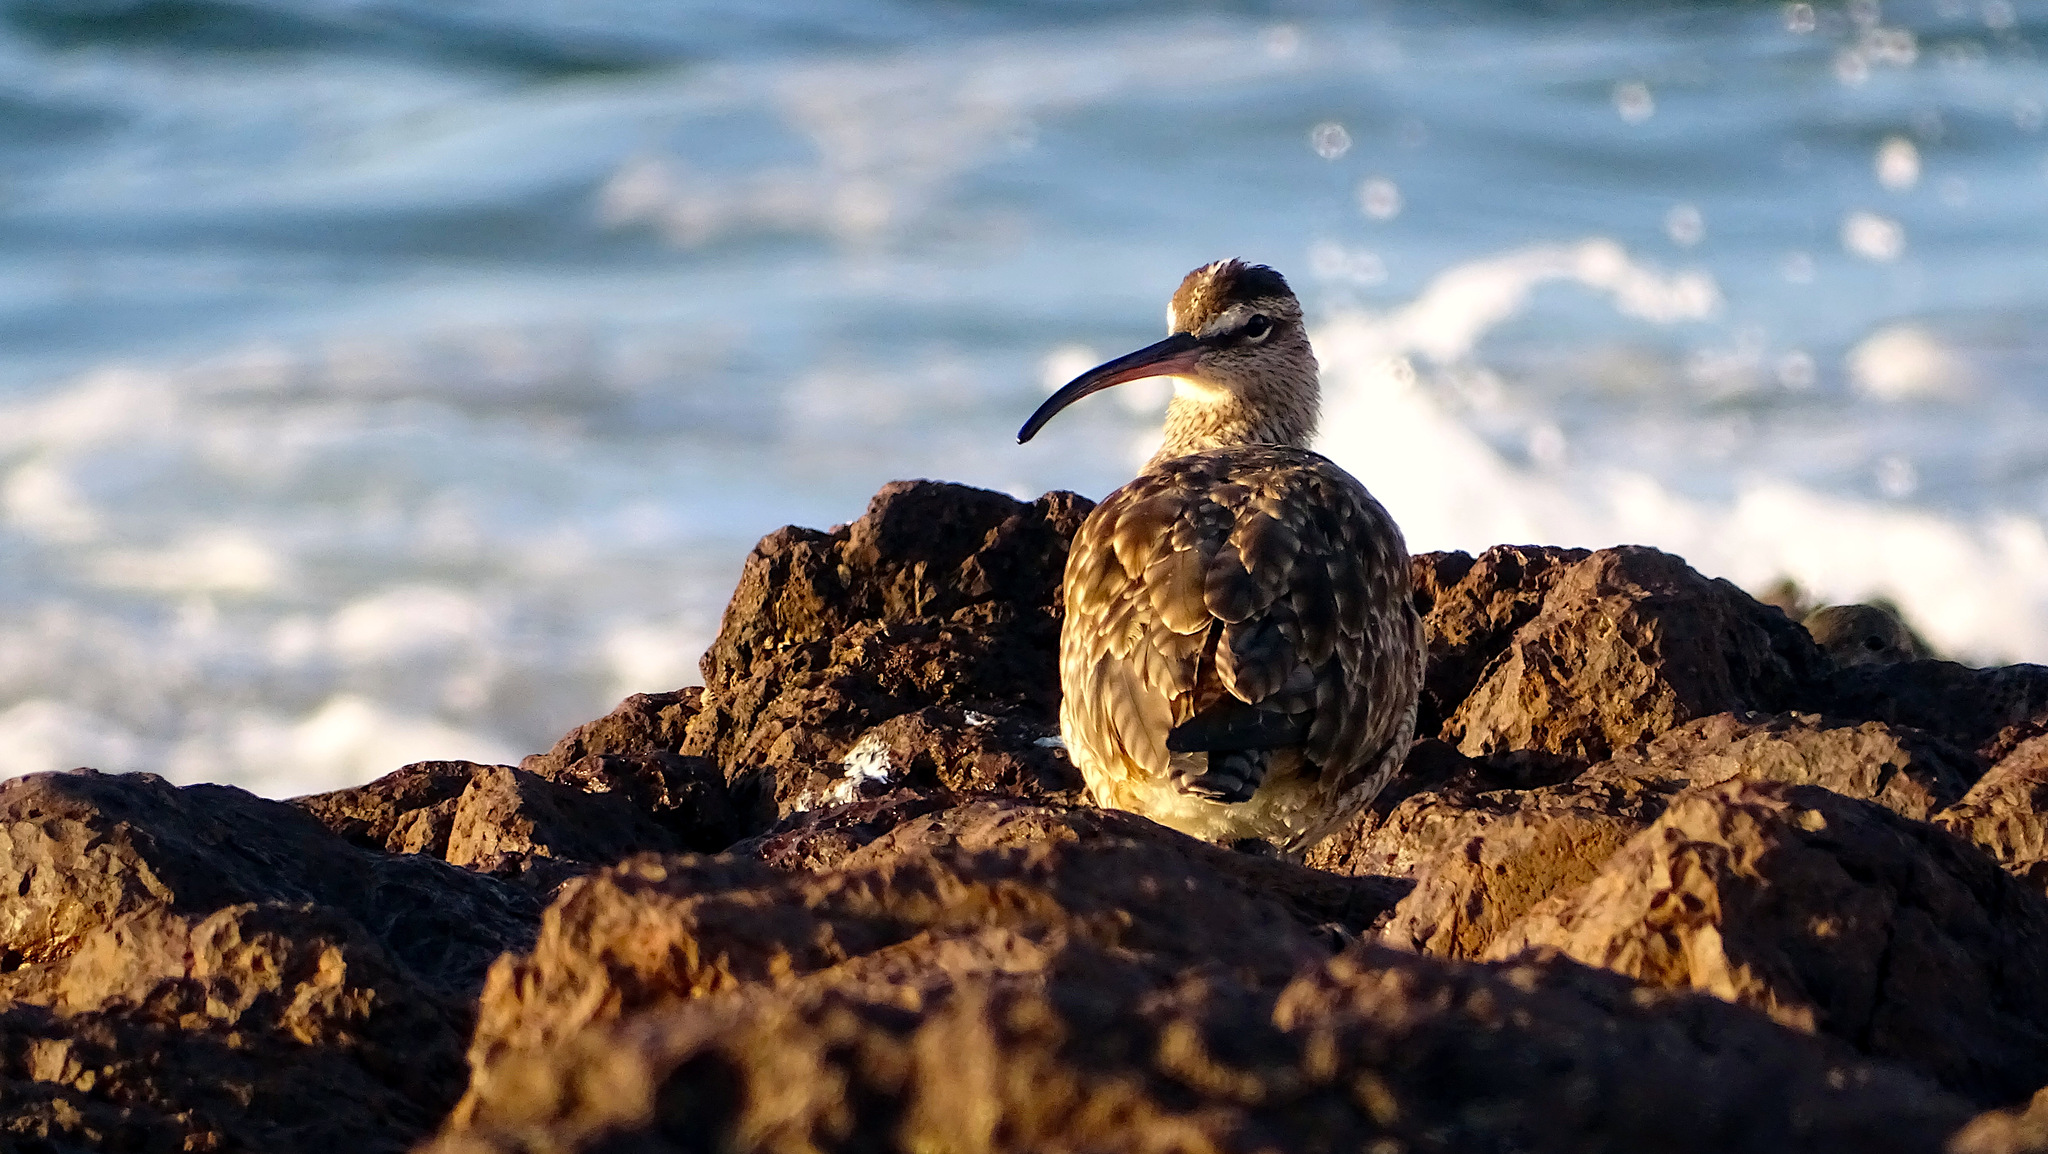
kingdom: Animalia
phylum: Chordata
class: Aves
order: Charadriiformes
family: Scolopacidae
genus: Numenius
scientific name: Numenius phaeopus
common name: Whimbrel
